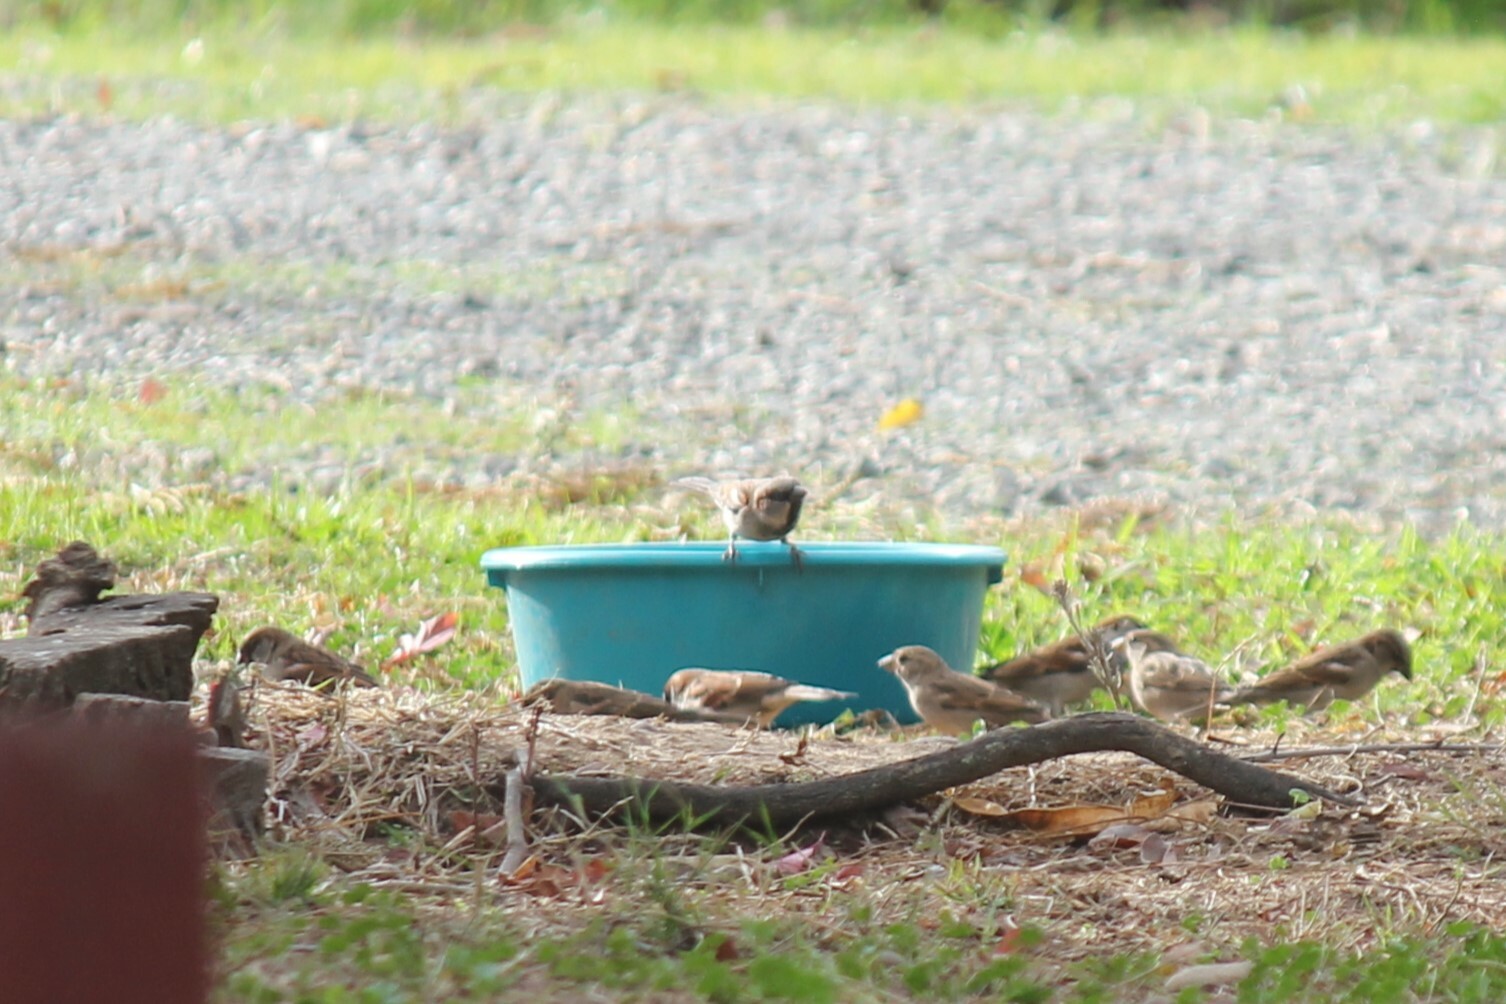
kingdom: Animalia
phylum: Chordata
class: Aves
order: Passeriformes
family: Passeridae
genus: Passer
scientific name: Passer domesticus
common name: House sparrow
